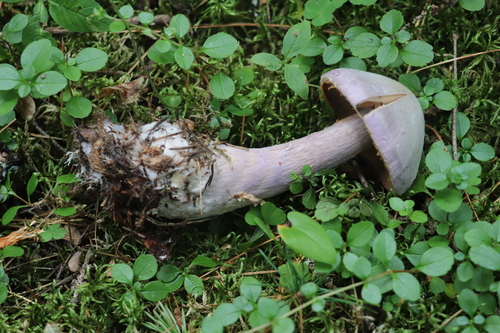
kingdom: Fungi
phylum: Basidiomycota
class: Agaricomycetes
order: Agaricales
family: Cortinariaceae
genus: Cortinarius
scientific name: Cortinarius camphoratus
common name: Goatcheese webcap
